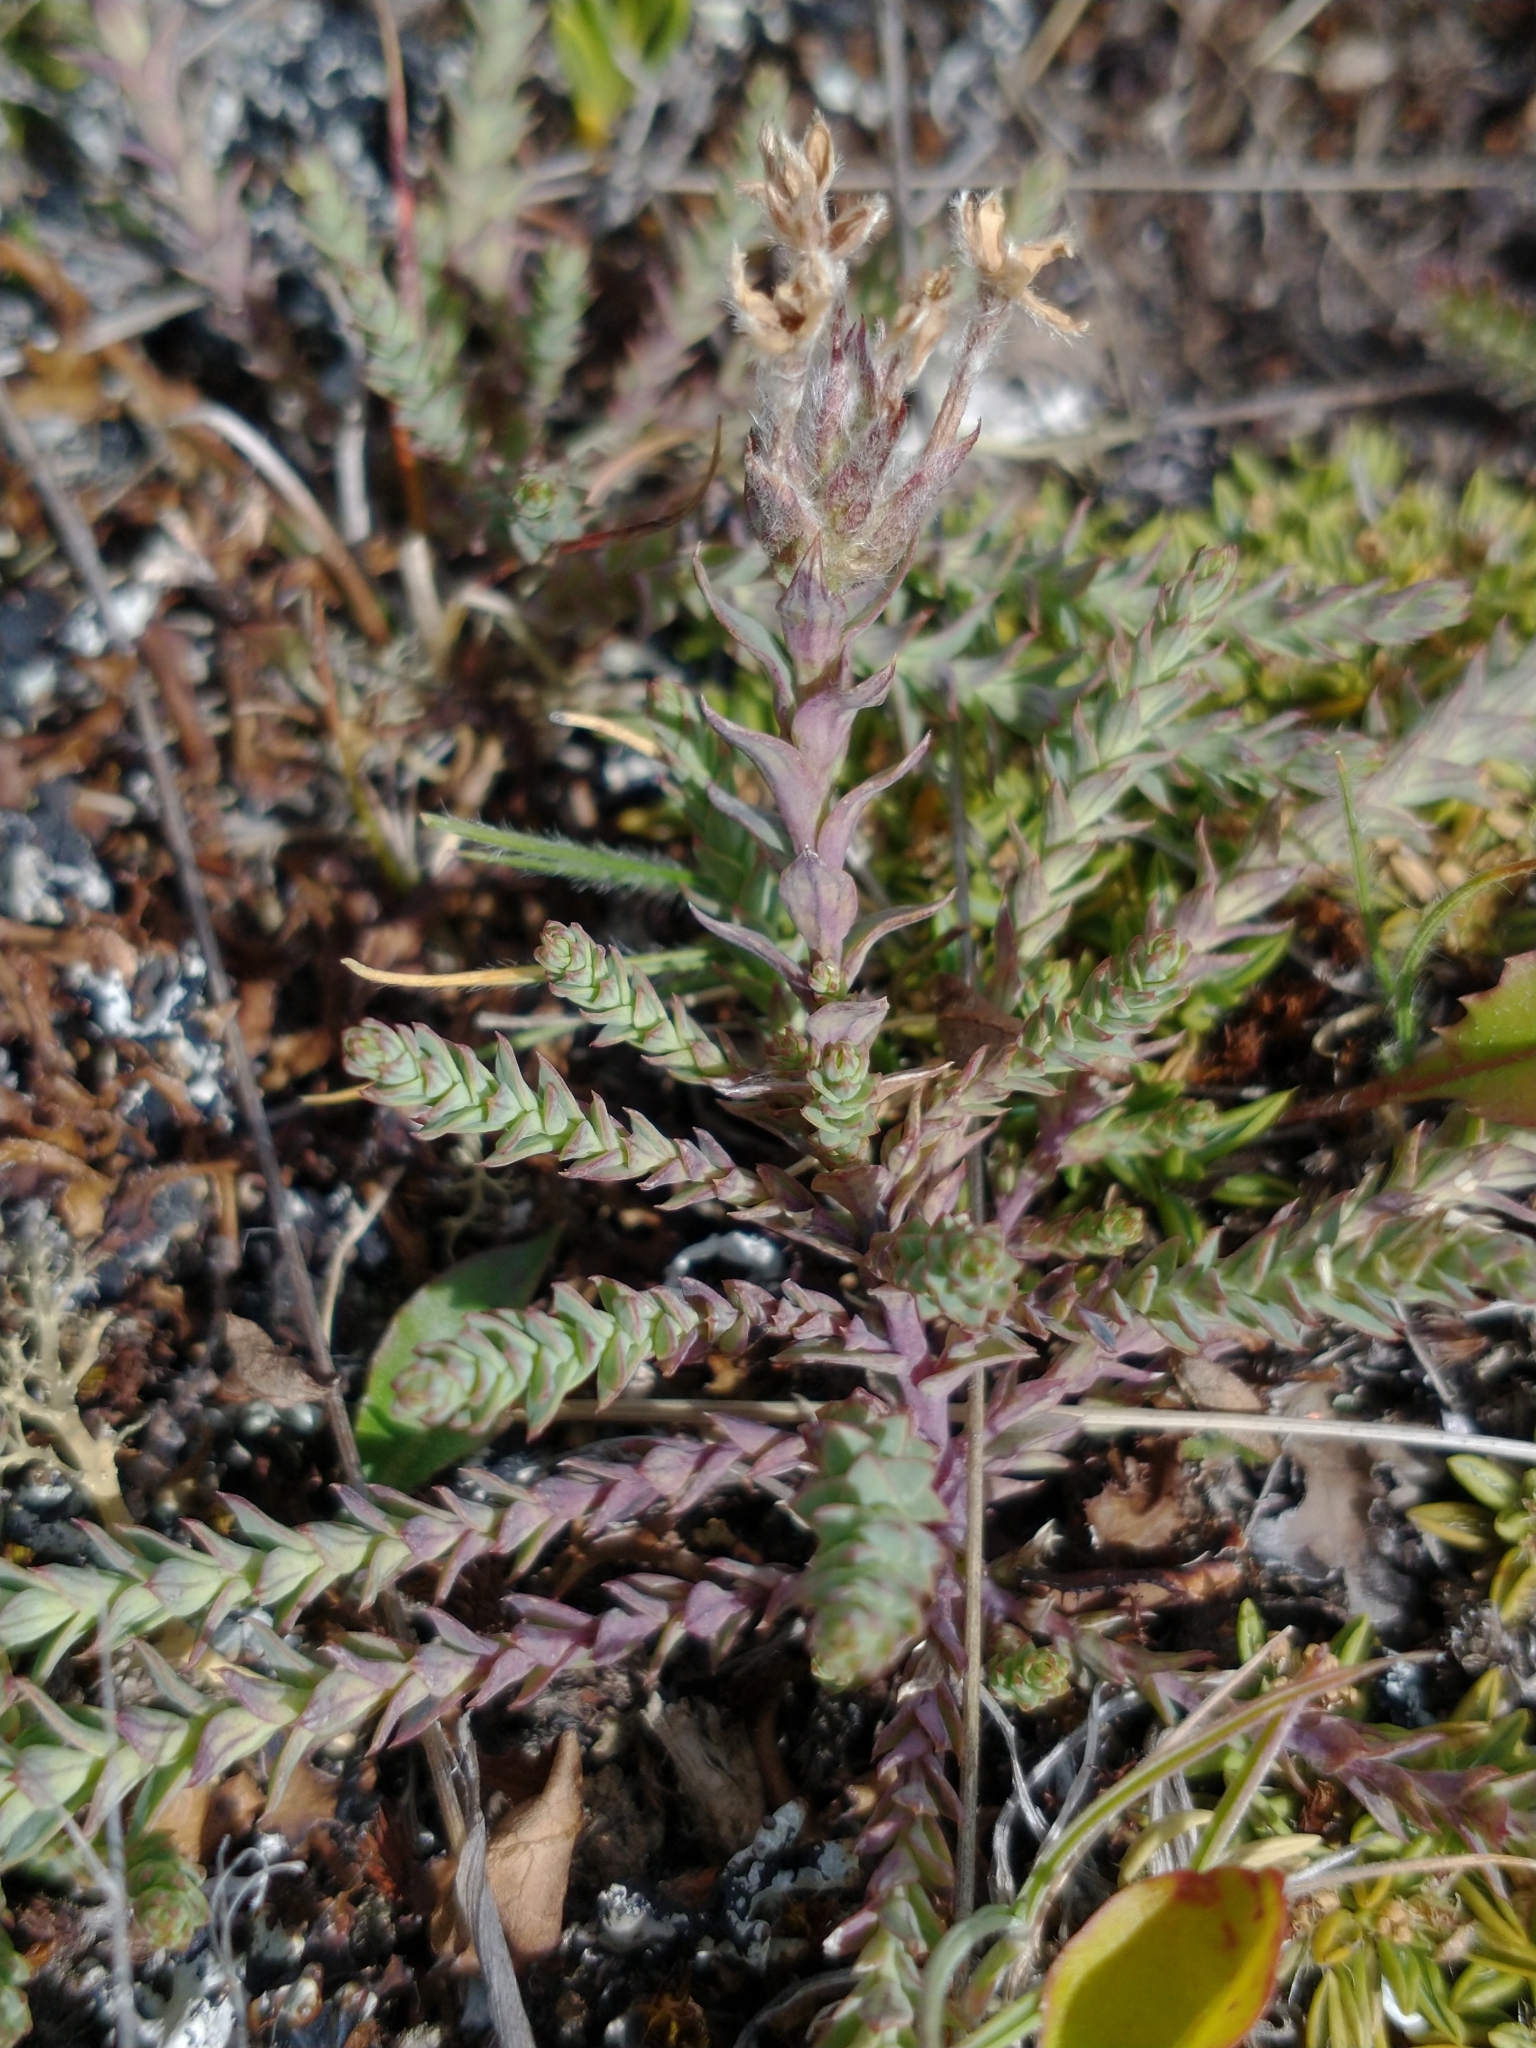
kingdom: Plantae
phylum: Tracheophyta
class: Magnoliopsida
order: Santalales
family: Schoepfiaceae
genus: Arjona
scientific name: Arjona patagonica
